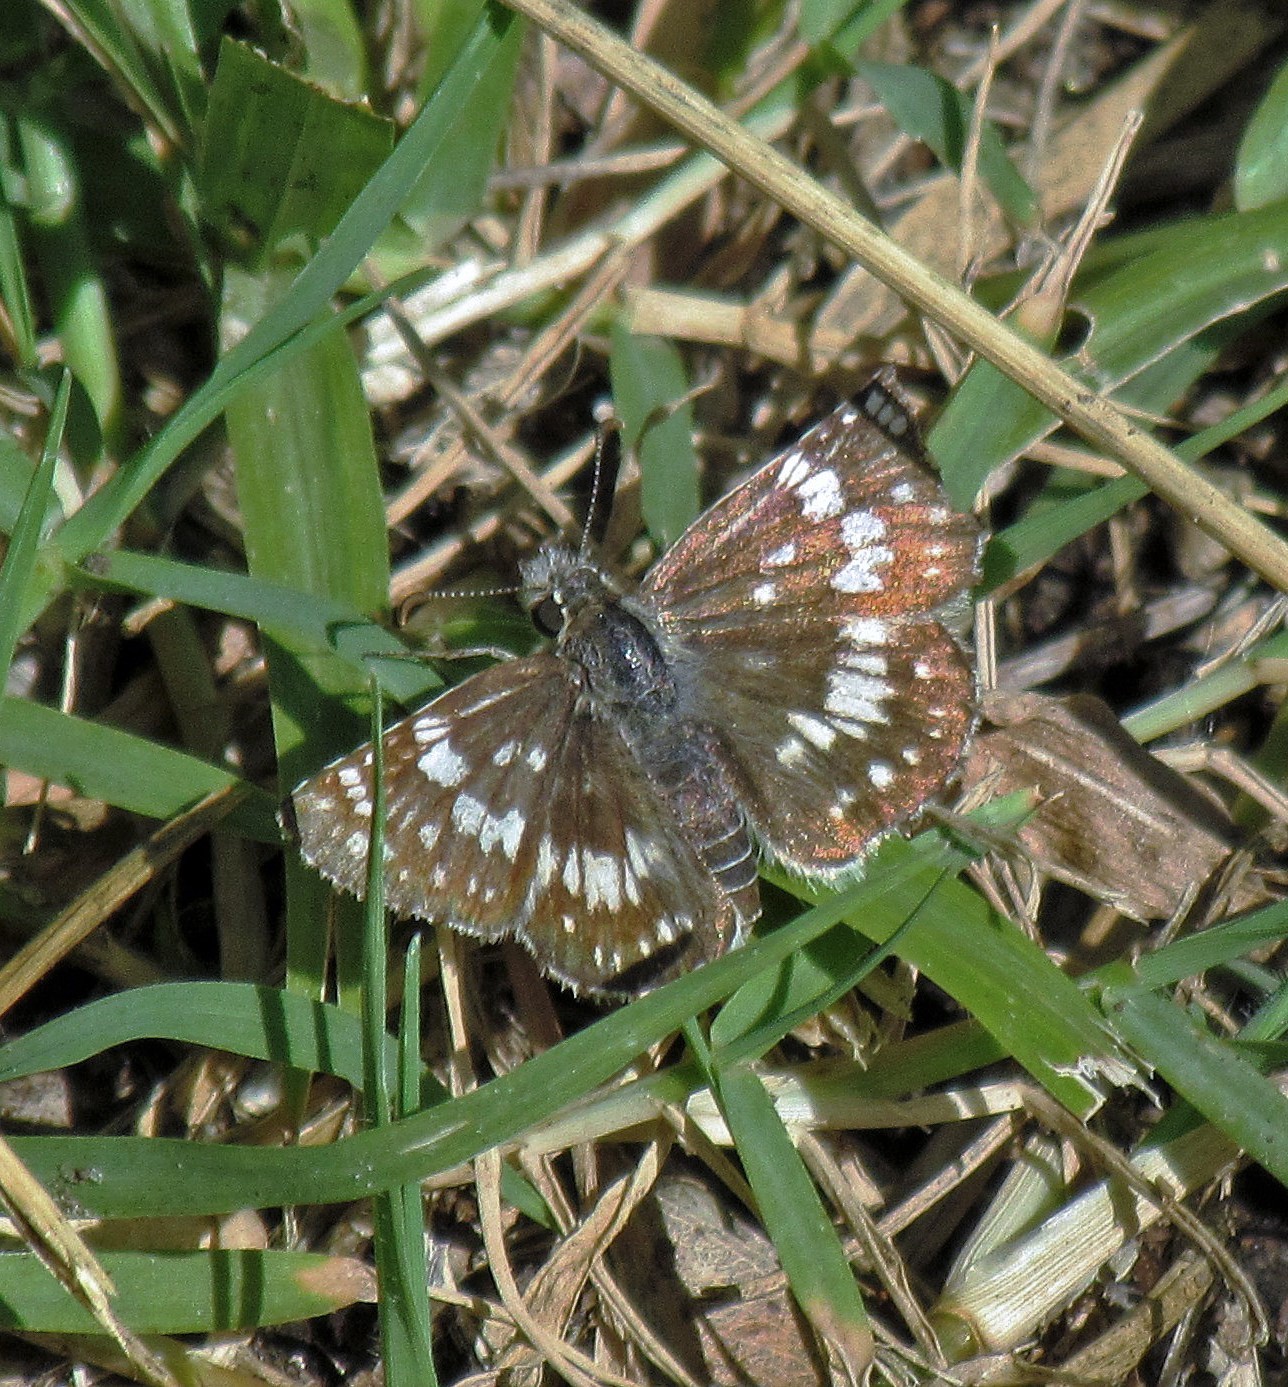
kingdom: Animalia
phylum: Arthropoda
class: Insecta
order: Lepidoptera
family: Hesperiidae
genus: Burnsius
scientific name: Burnsius orcynoides
